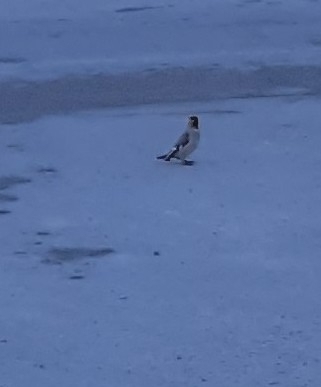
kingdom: Animalia
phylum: Chordata
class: Aves
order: Passeriformes
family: Bombycillidae
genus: Bombycilla
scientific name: Bombycilla garrulus
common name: Bohemian waxwing
